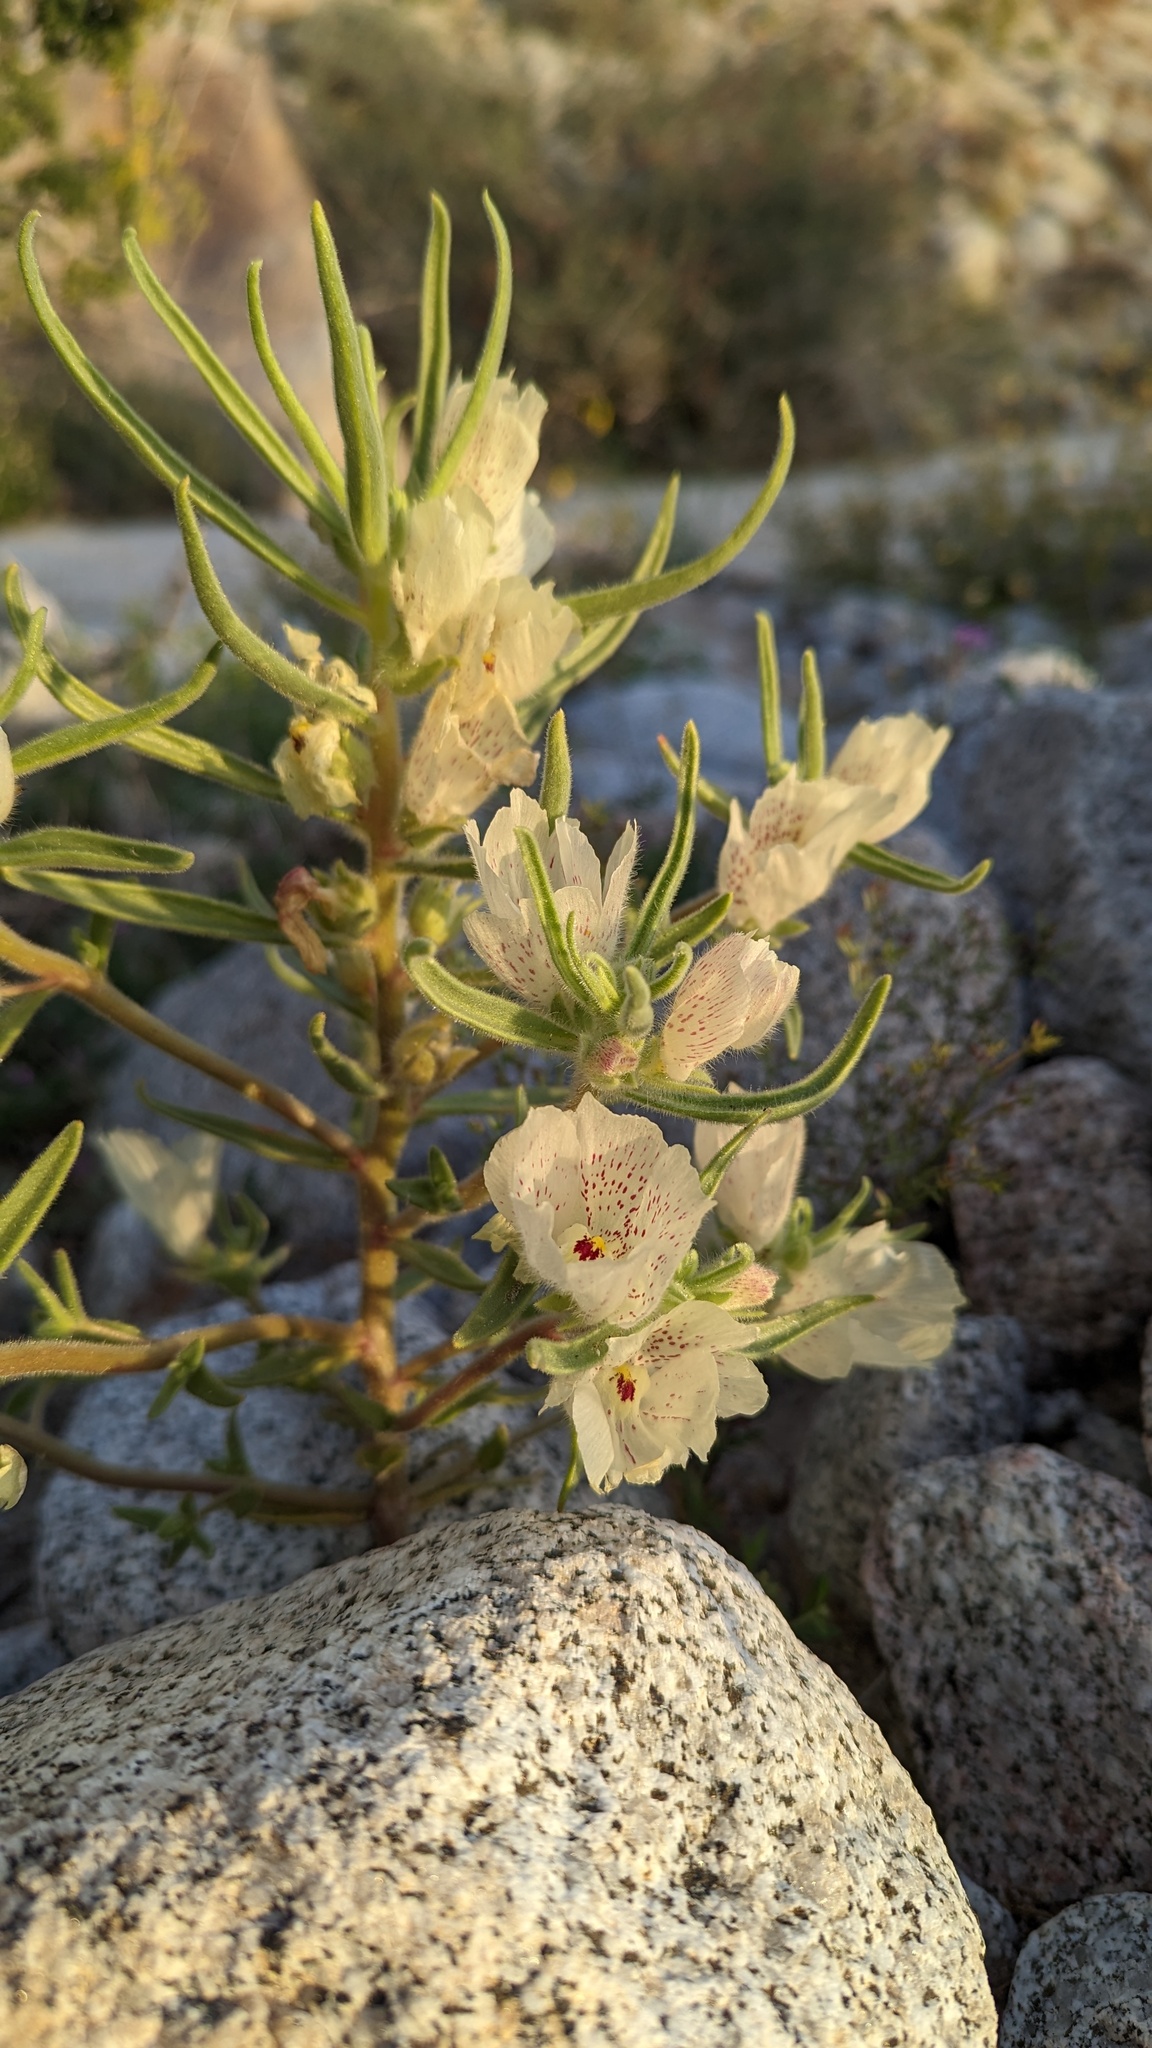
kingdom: Plantae
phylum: Tracheophyta
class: Magnoliopsida
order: Lamiales
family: Plantaginaceae
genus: Mohavea
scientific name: Mohavea confertiflora
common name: Ghost flower
